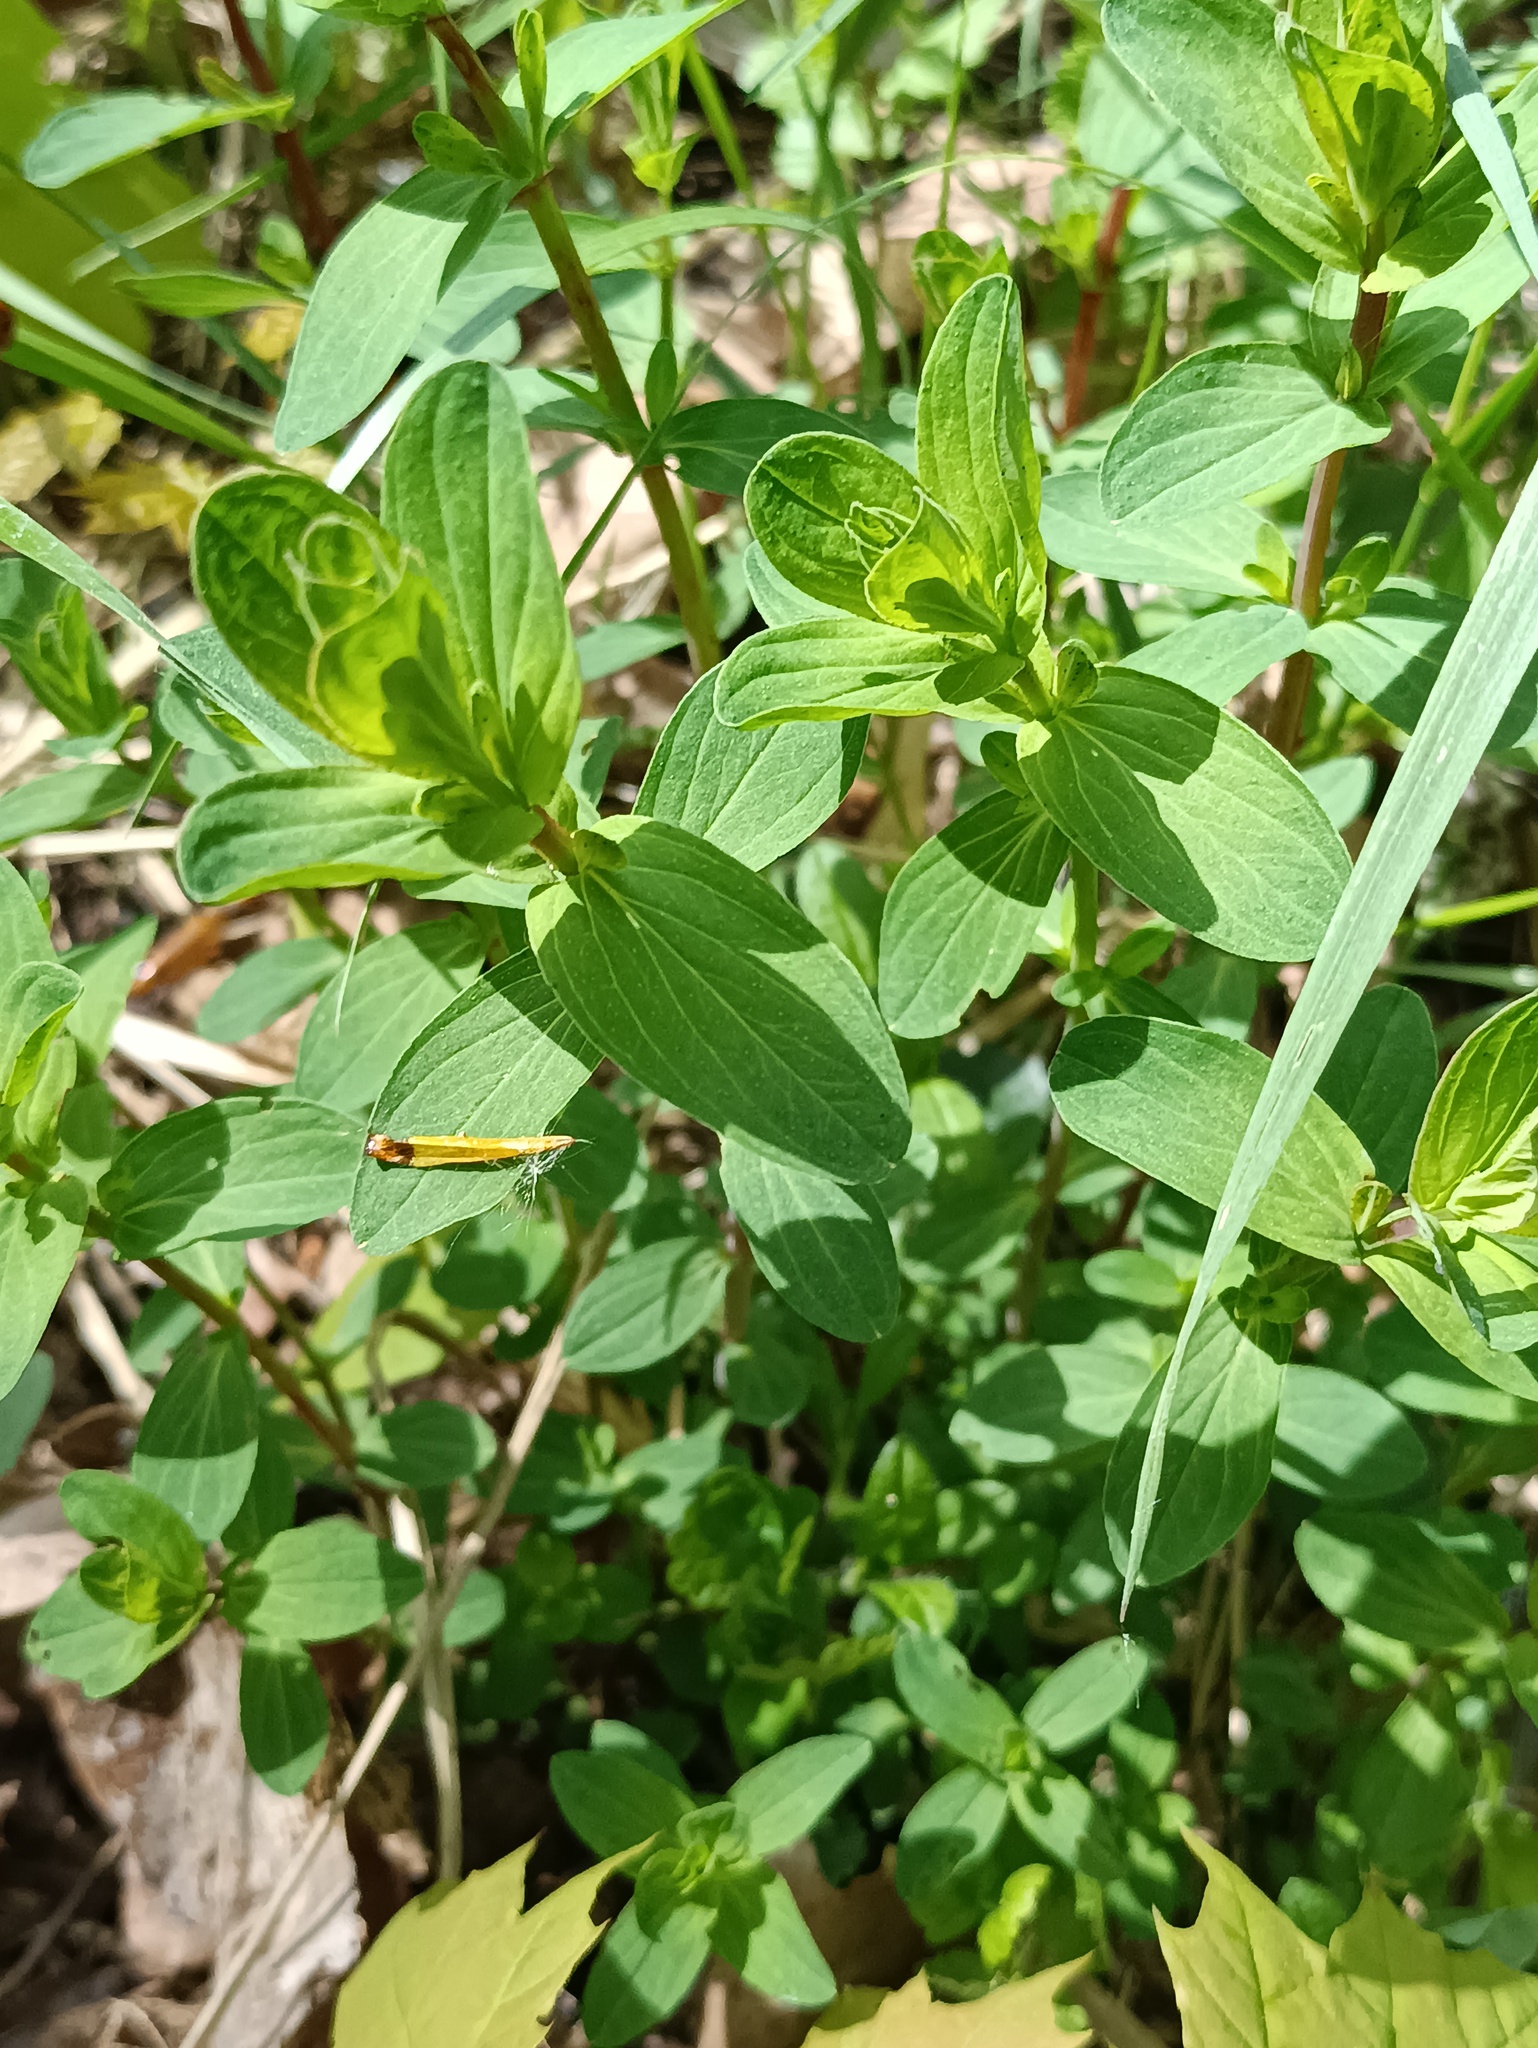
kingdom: Plantae
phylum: Tracheophyta
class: Magnoliopsida
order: Malpighiales
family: Hypericaceae
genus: Hypericum
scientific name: Hypericum perforatum
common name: Common st. johnswort
